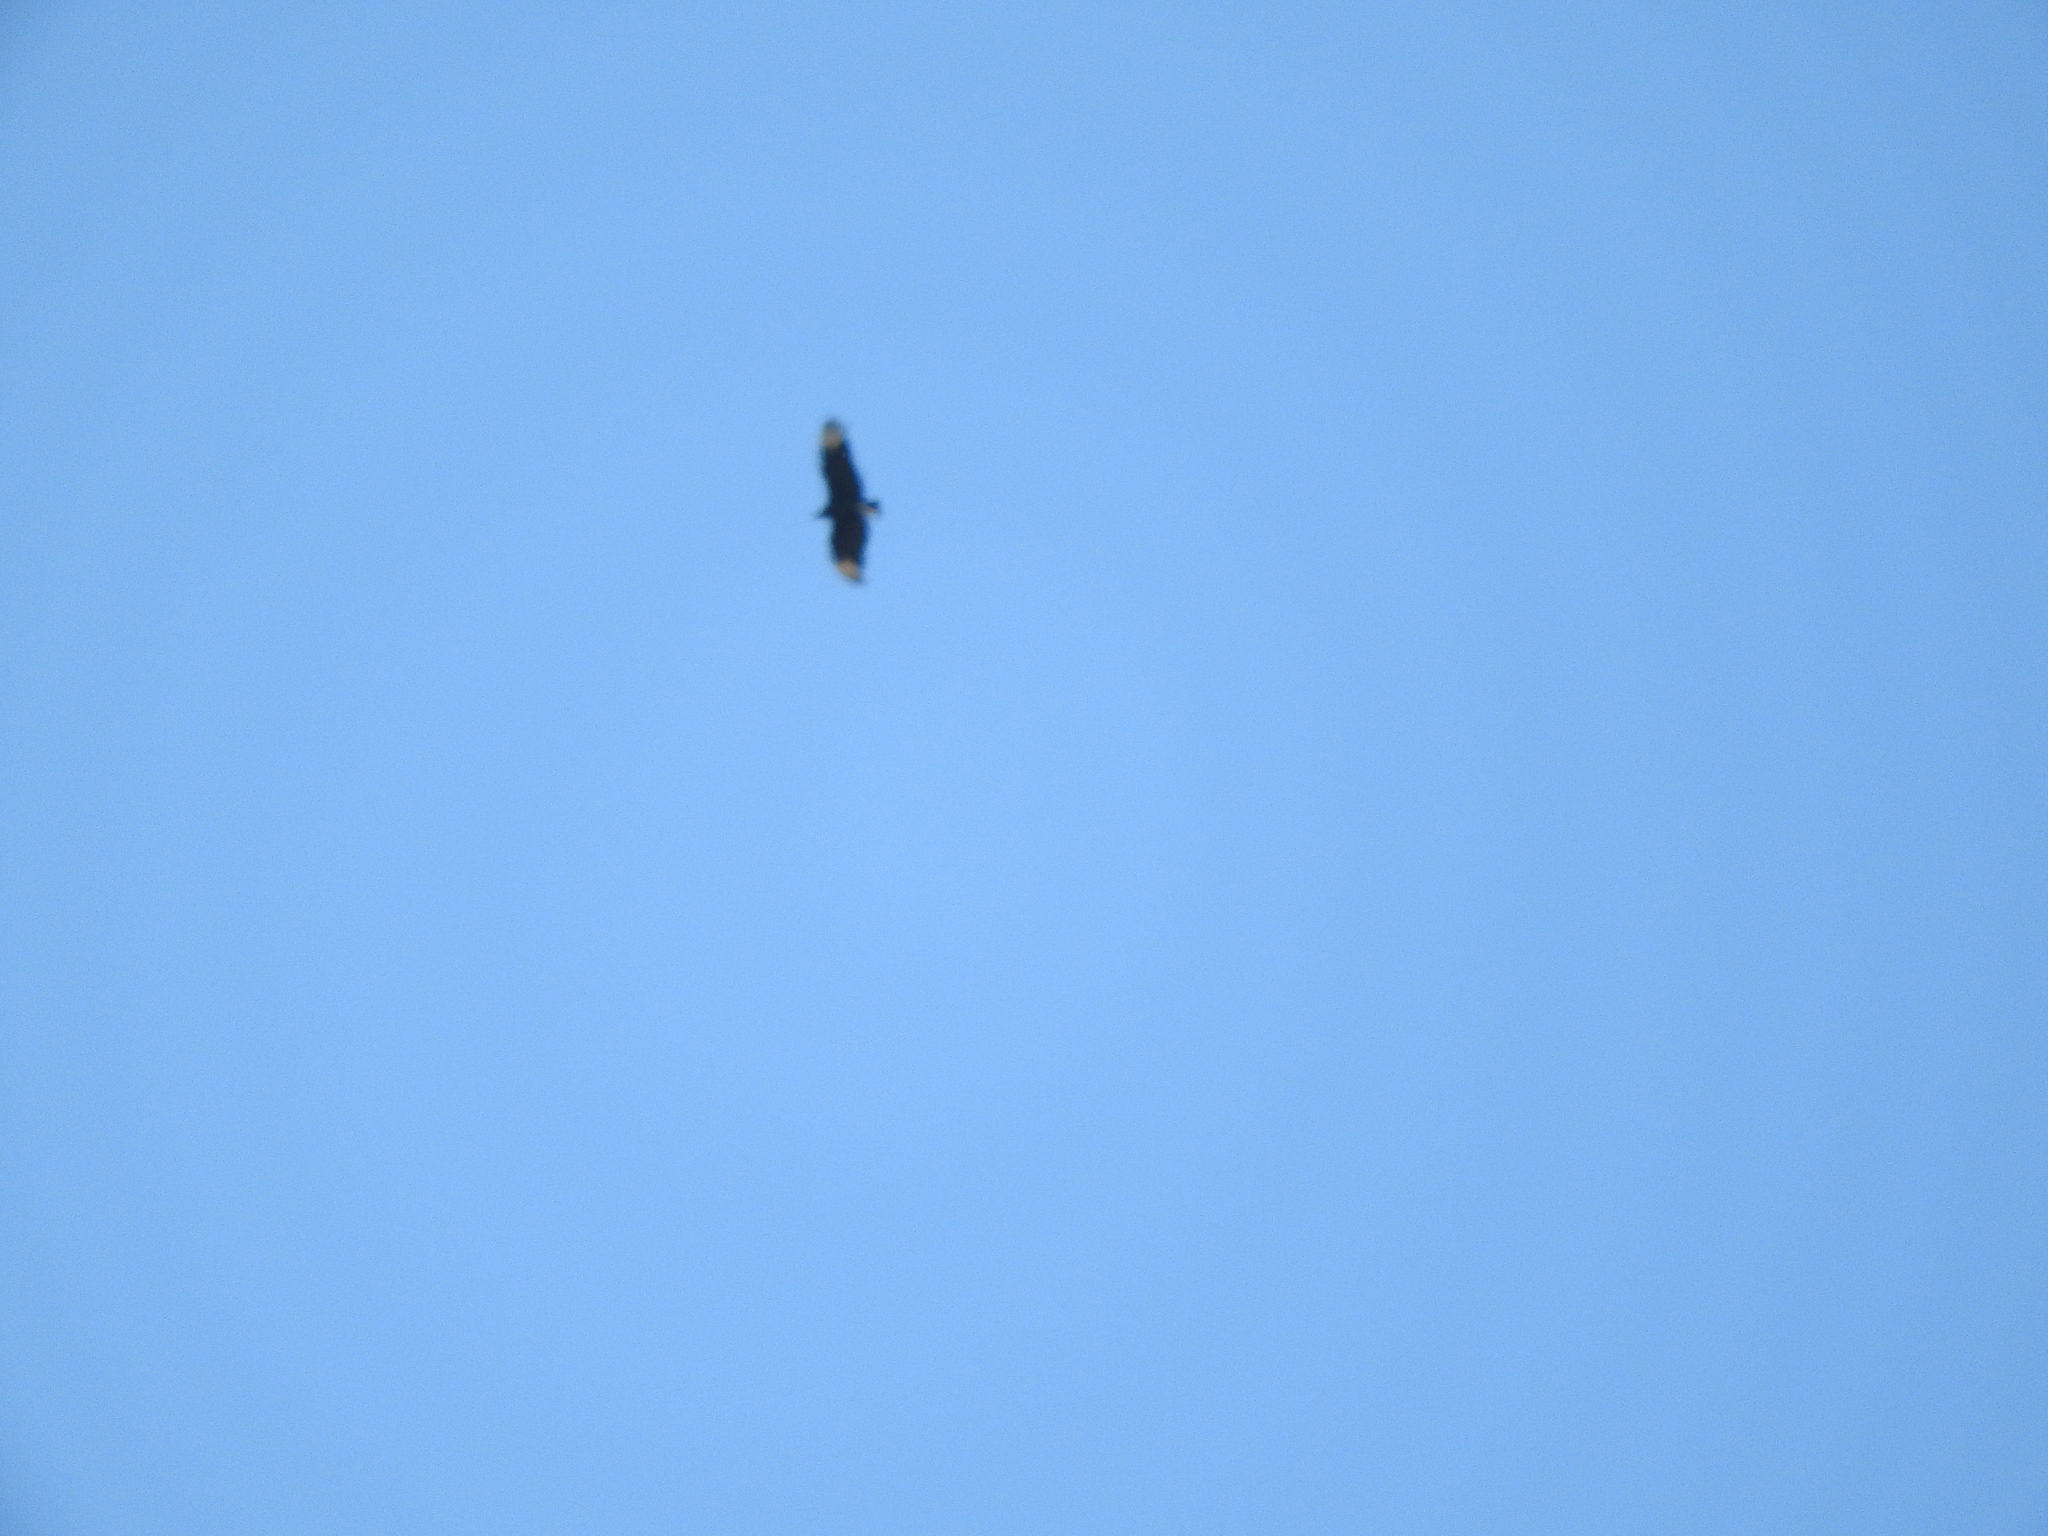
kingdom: Animalia
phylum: Chordata
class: Aves
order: Accipitriformes
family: Cathartidae
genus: Coragyps
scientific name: Coragyps atratus
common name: Black vulture
